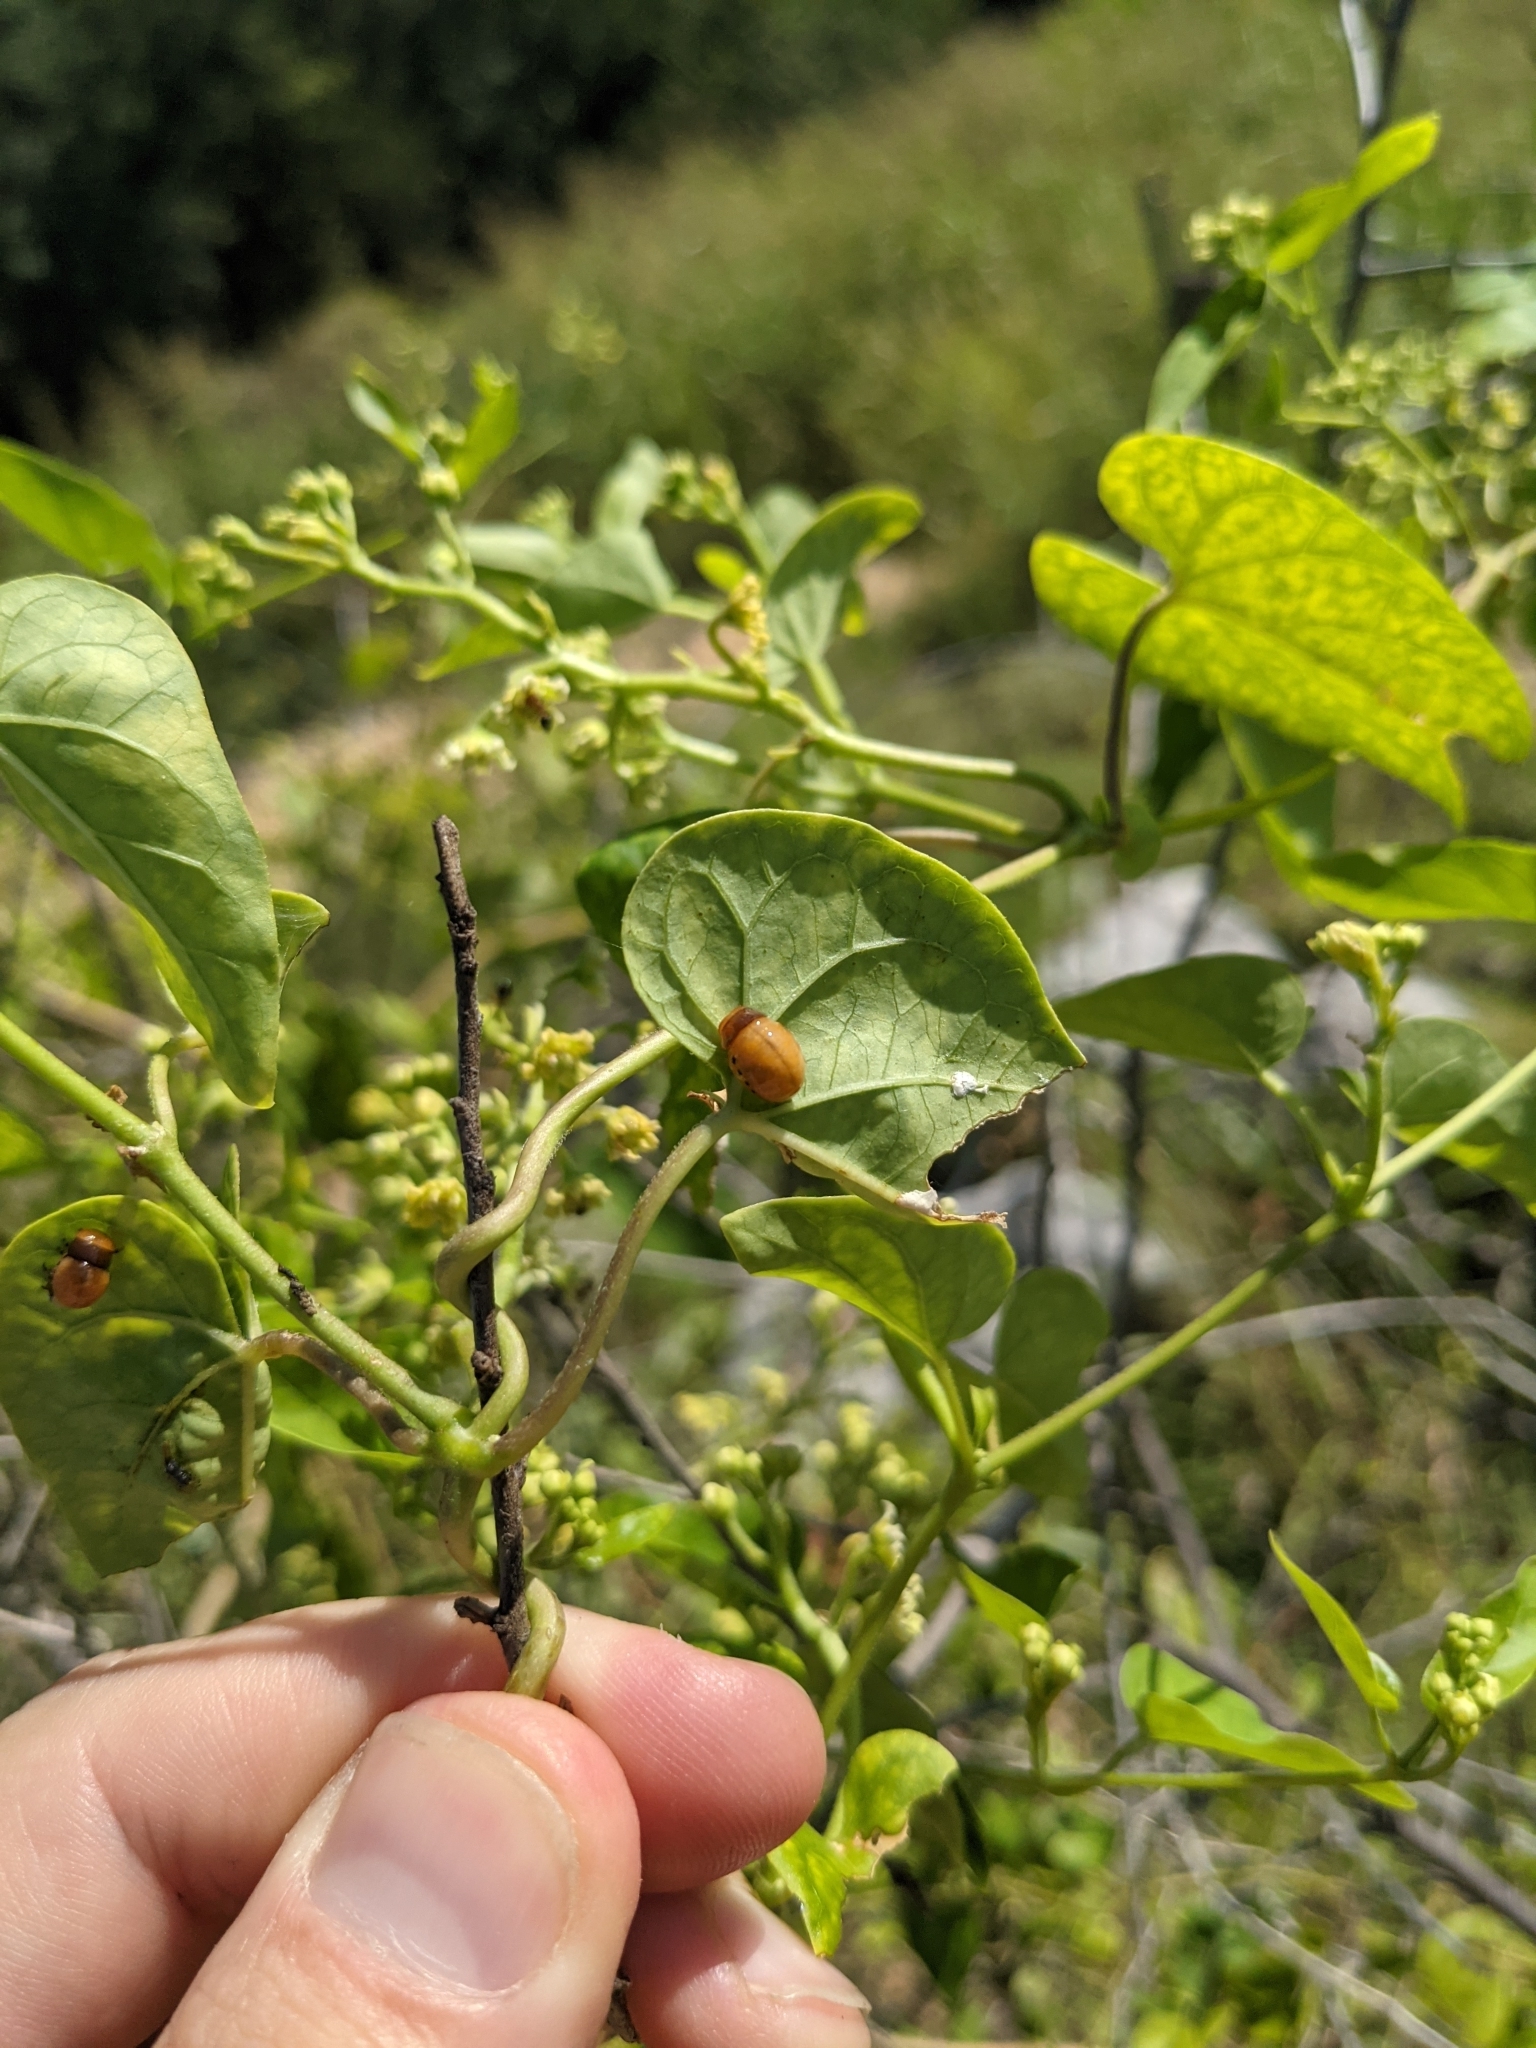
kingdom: Animalia
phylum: Arthropoda
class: Insecta
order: Coleoptera
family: Chrysomelidae
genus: Labidomera
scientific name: Labidomera clivicollis
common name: Swamp milkweed leaf beetle
